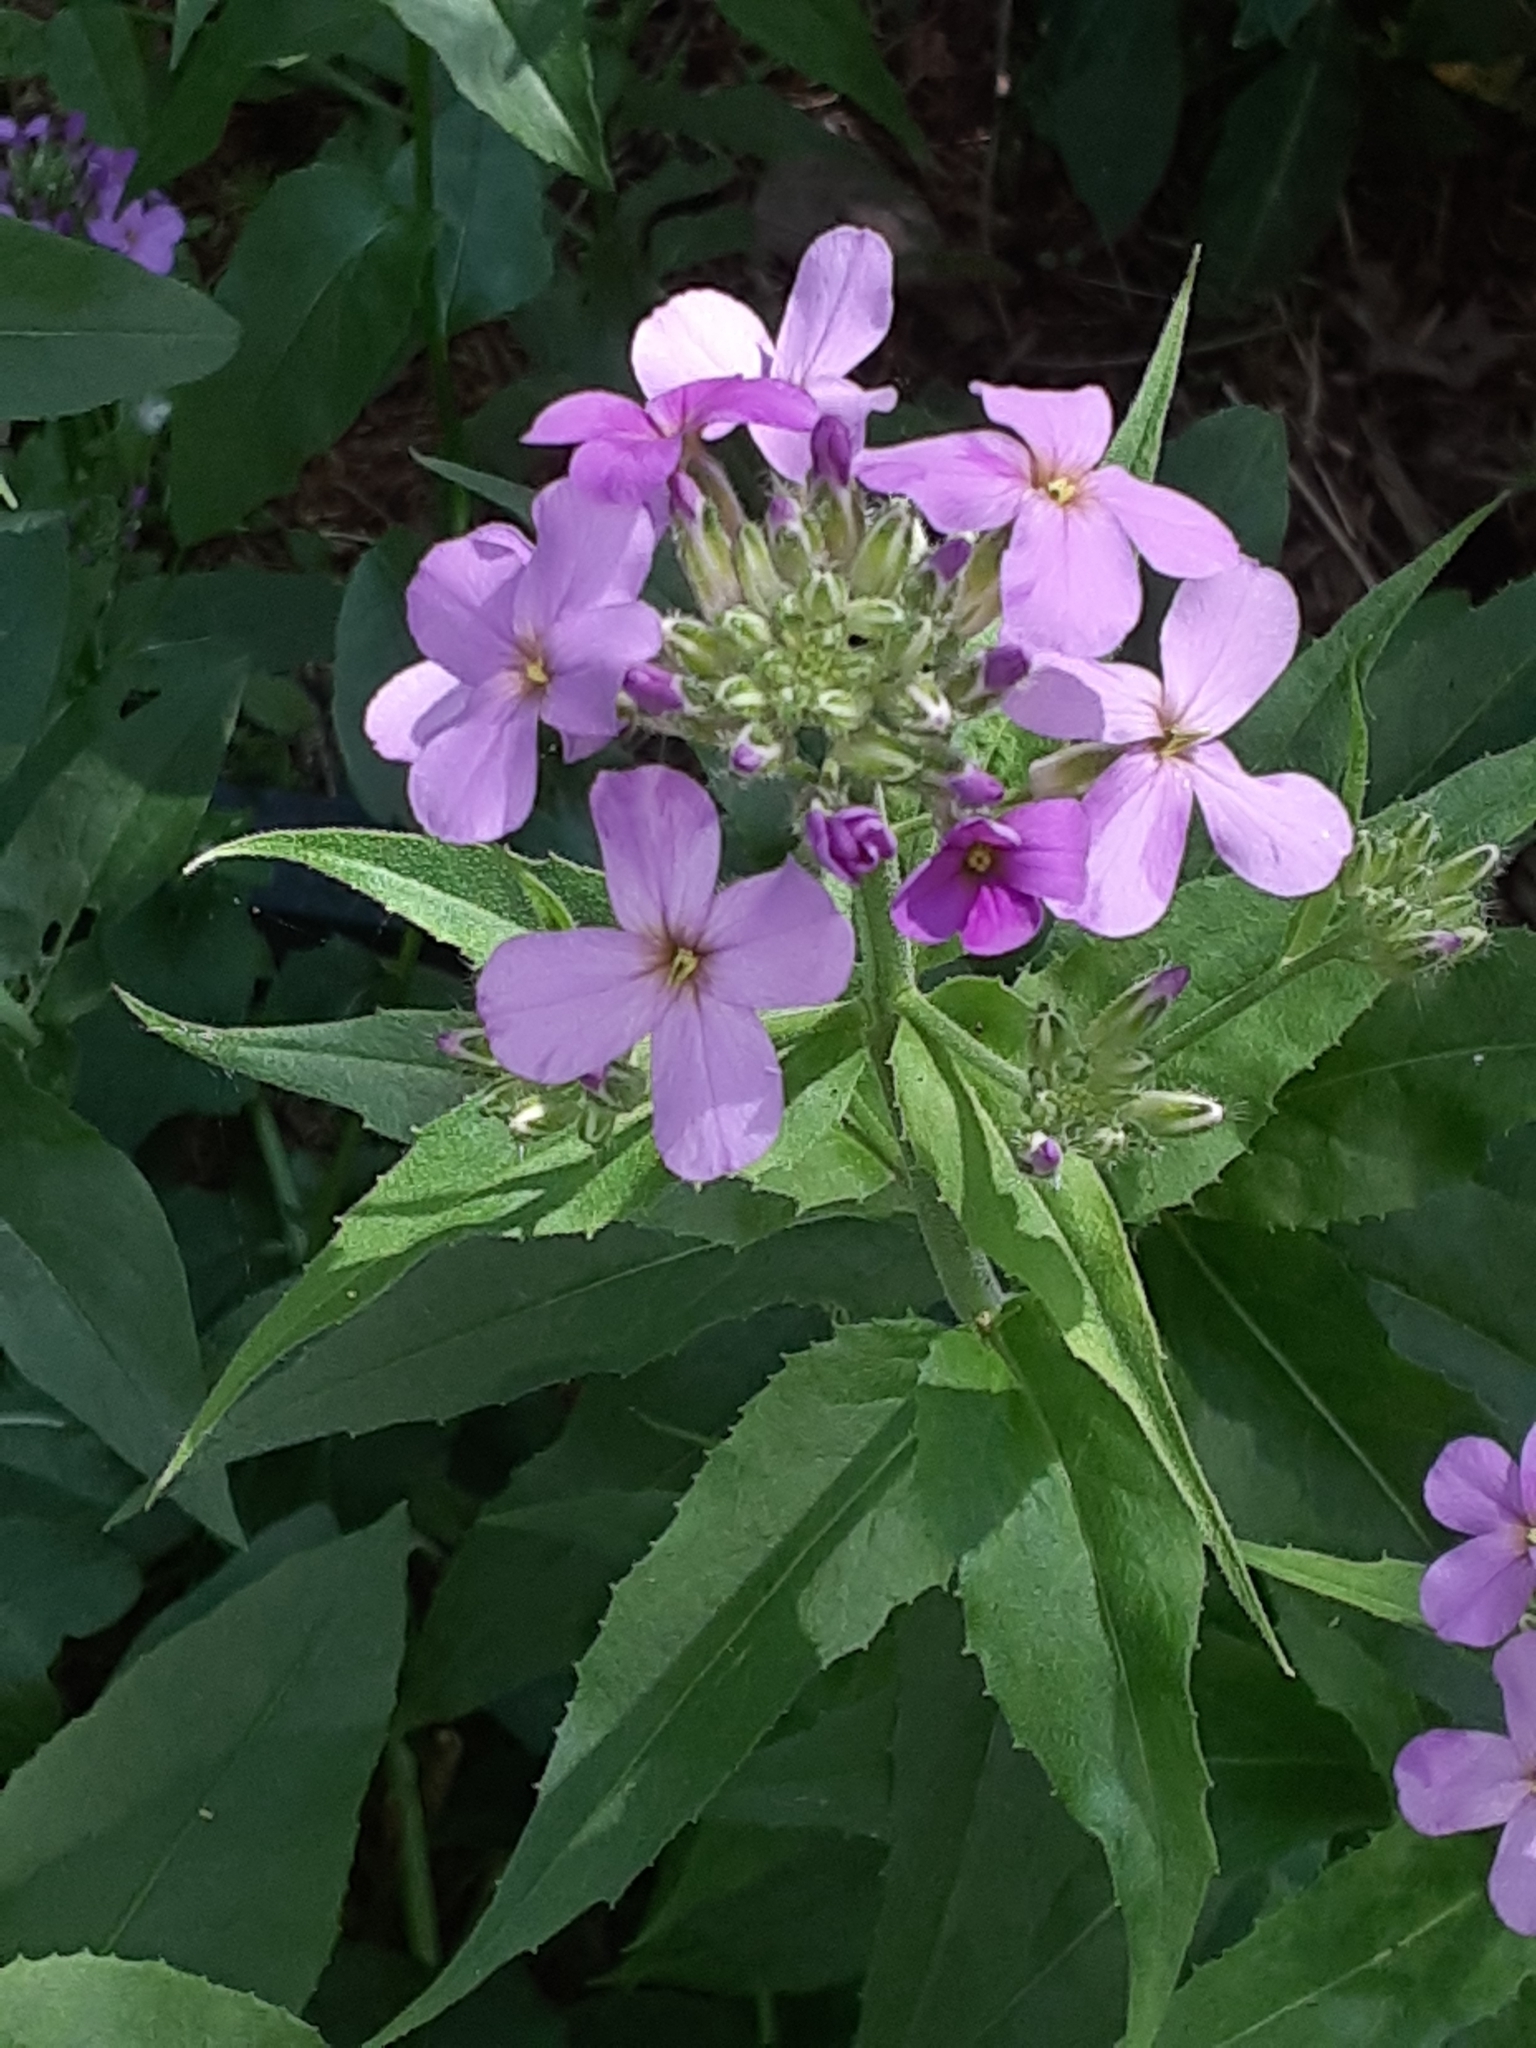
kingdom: Plantae
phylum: Tracheophyta
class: Magnoliopsida
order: Brassicales
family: Brassicaceae
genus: Hesperis
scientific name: Hesperis matronalis
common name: Dame's-violet
